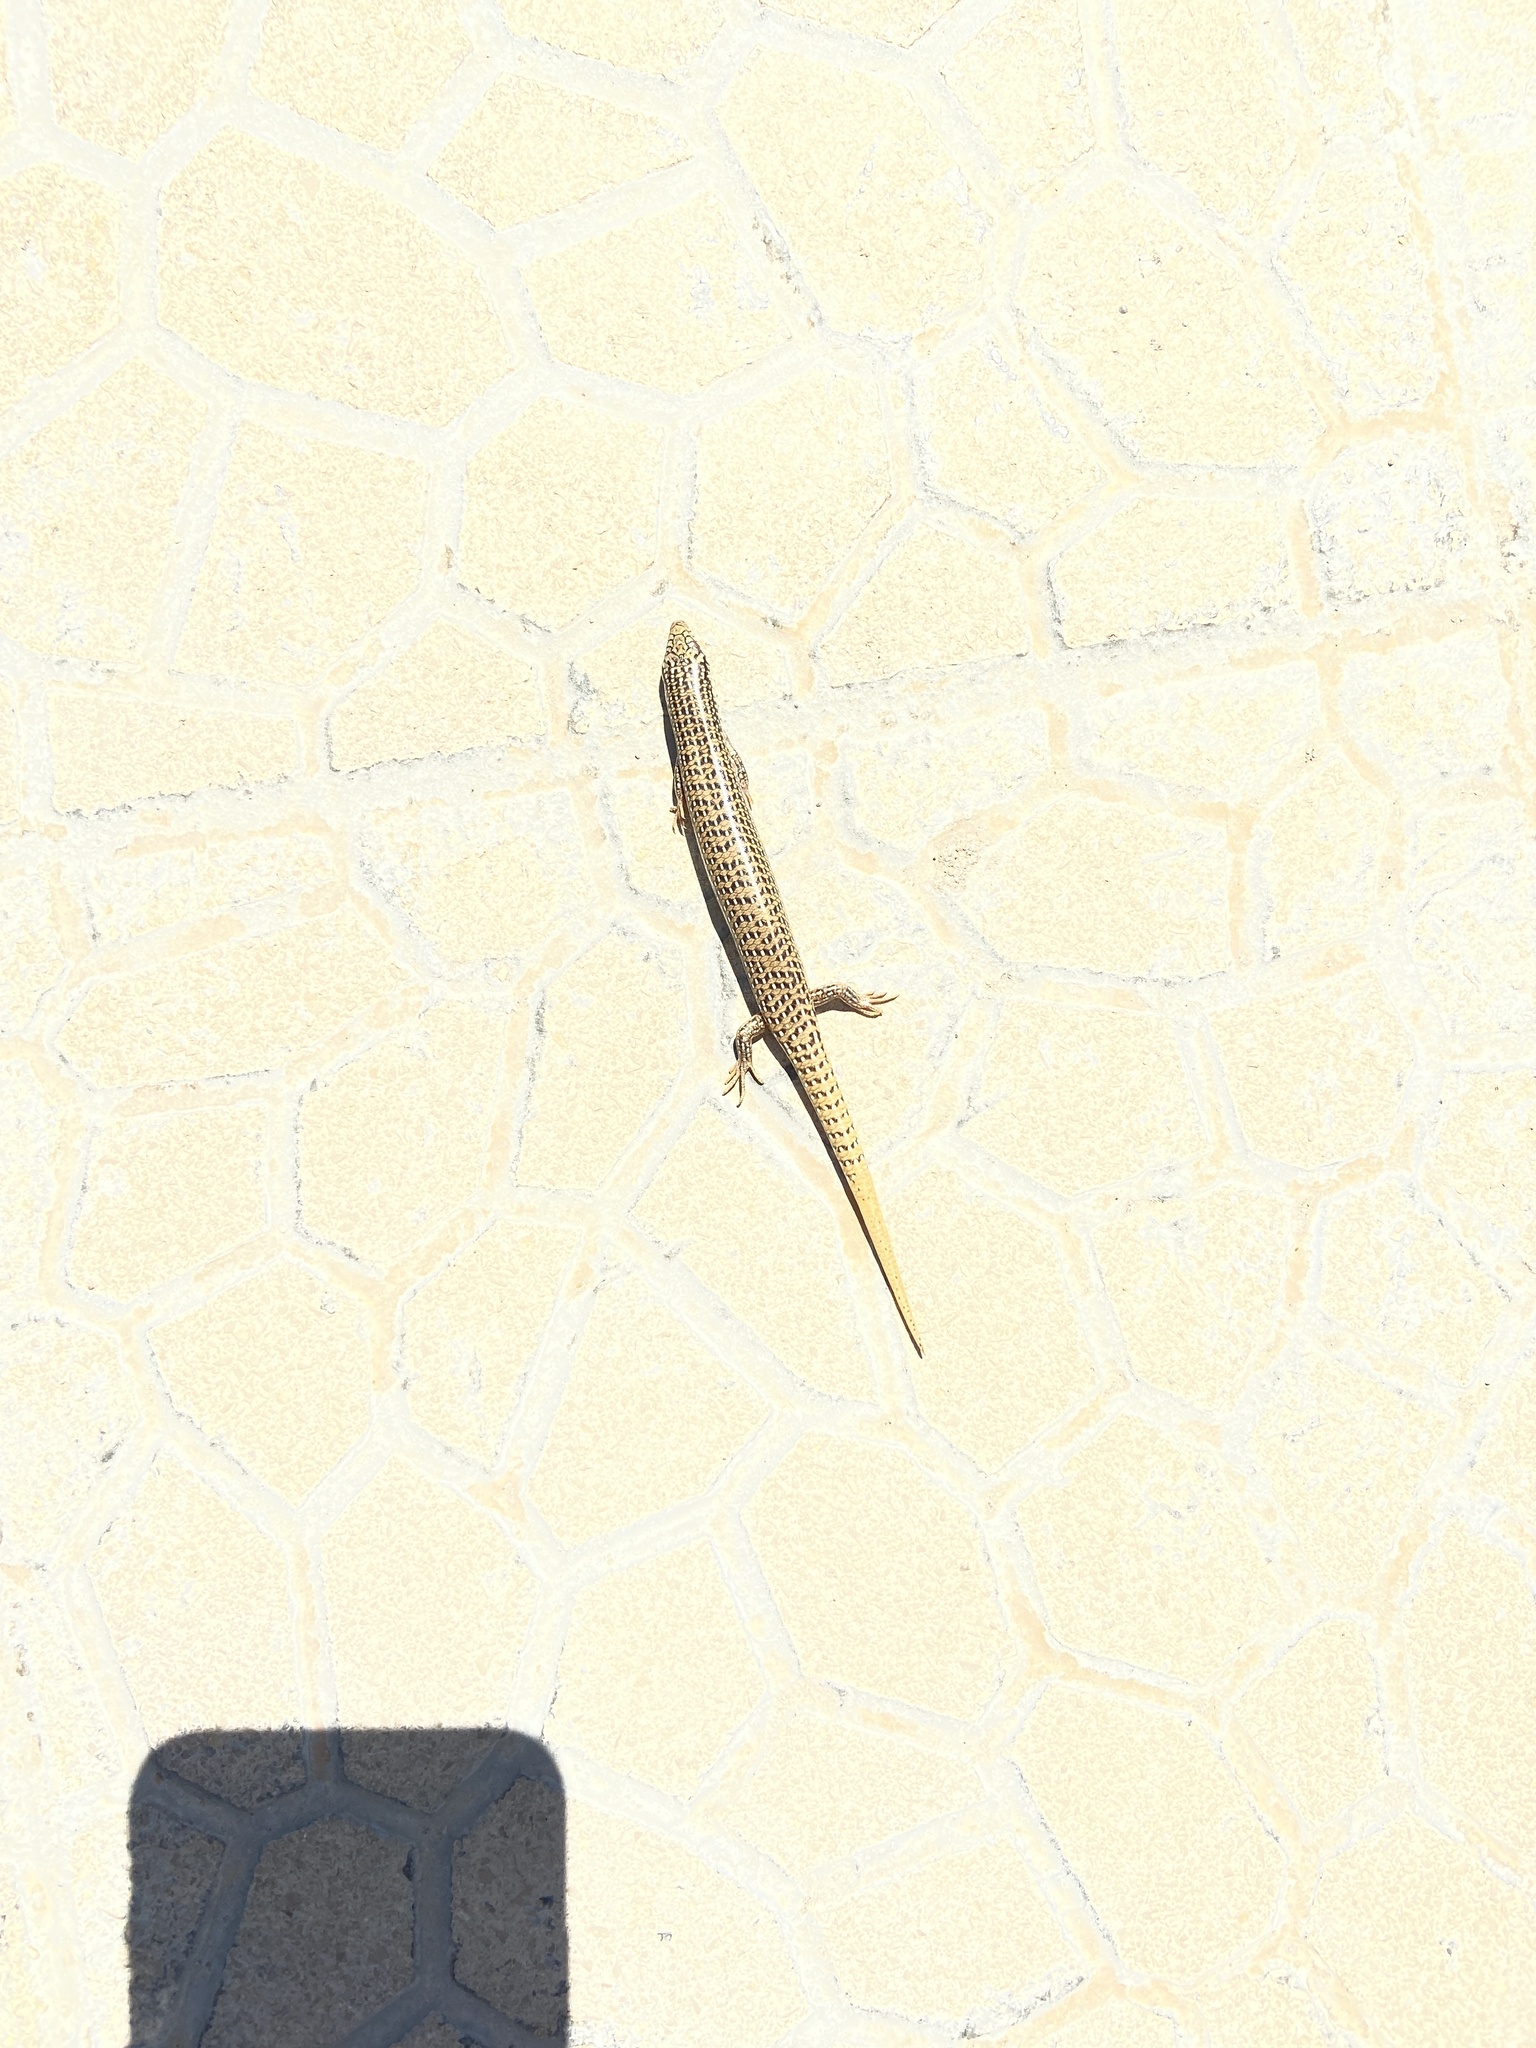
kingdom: Animalia
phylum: Chordata
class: Squamata
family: Scincidae
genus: Chalcides
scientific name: Chalcides ocellatus
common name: Ocellated skink
